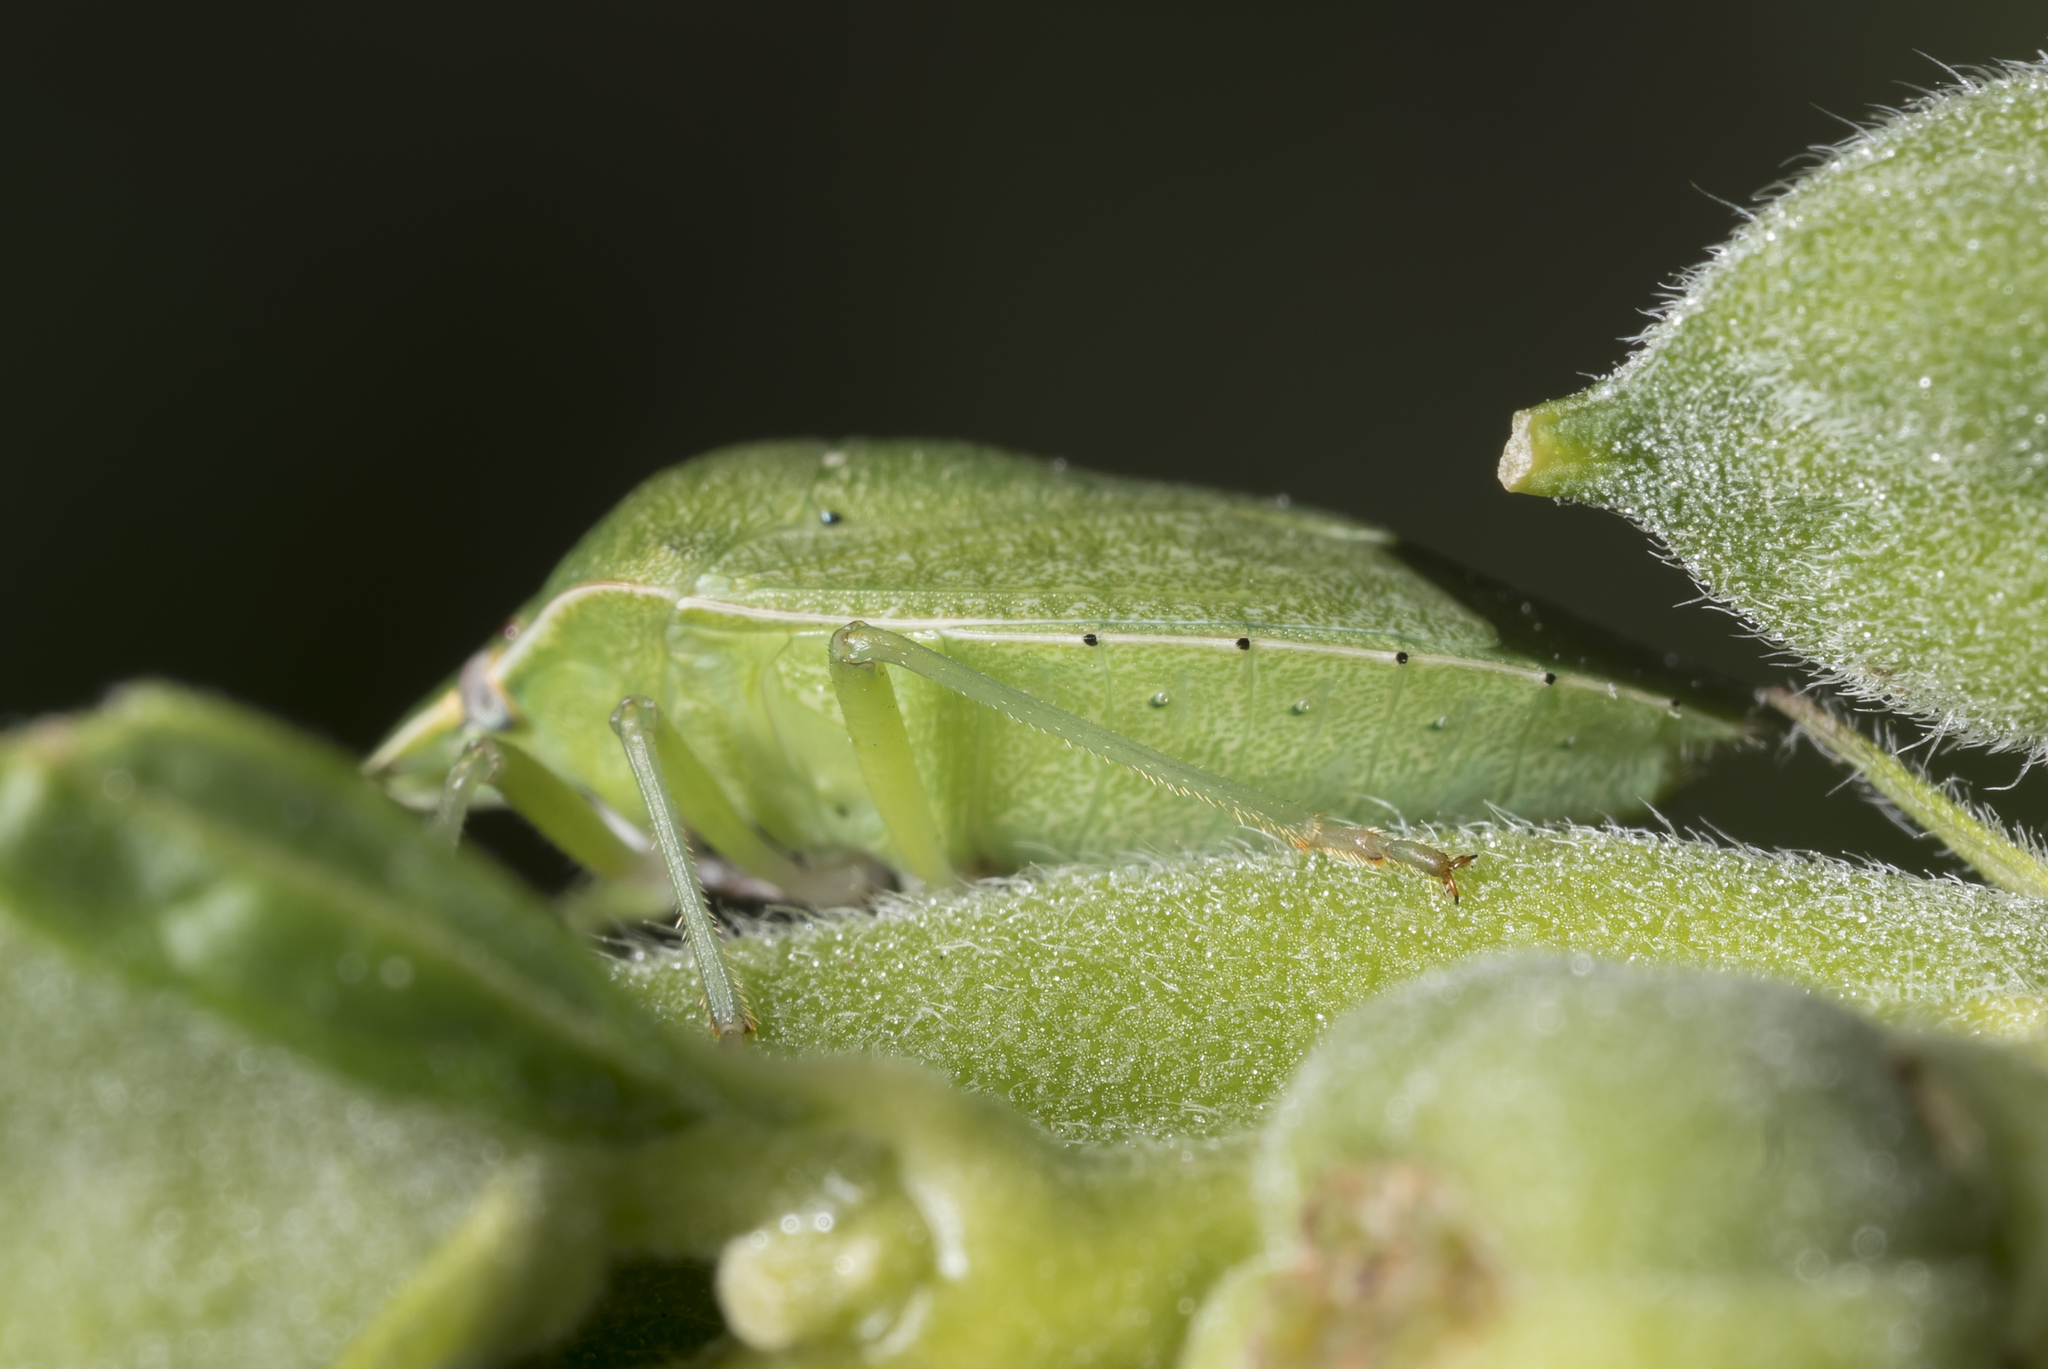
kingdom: Animalia
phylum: Arthropoda
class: Insecta
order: Hemiptera
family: Pentatomidae
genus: Nezara
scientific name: Nezara viridula
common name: Southern green stink bug
